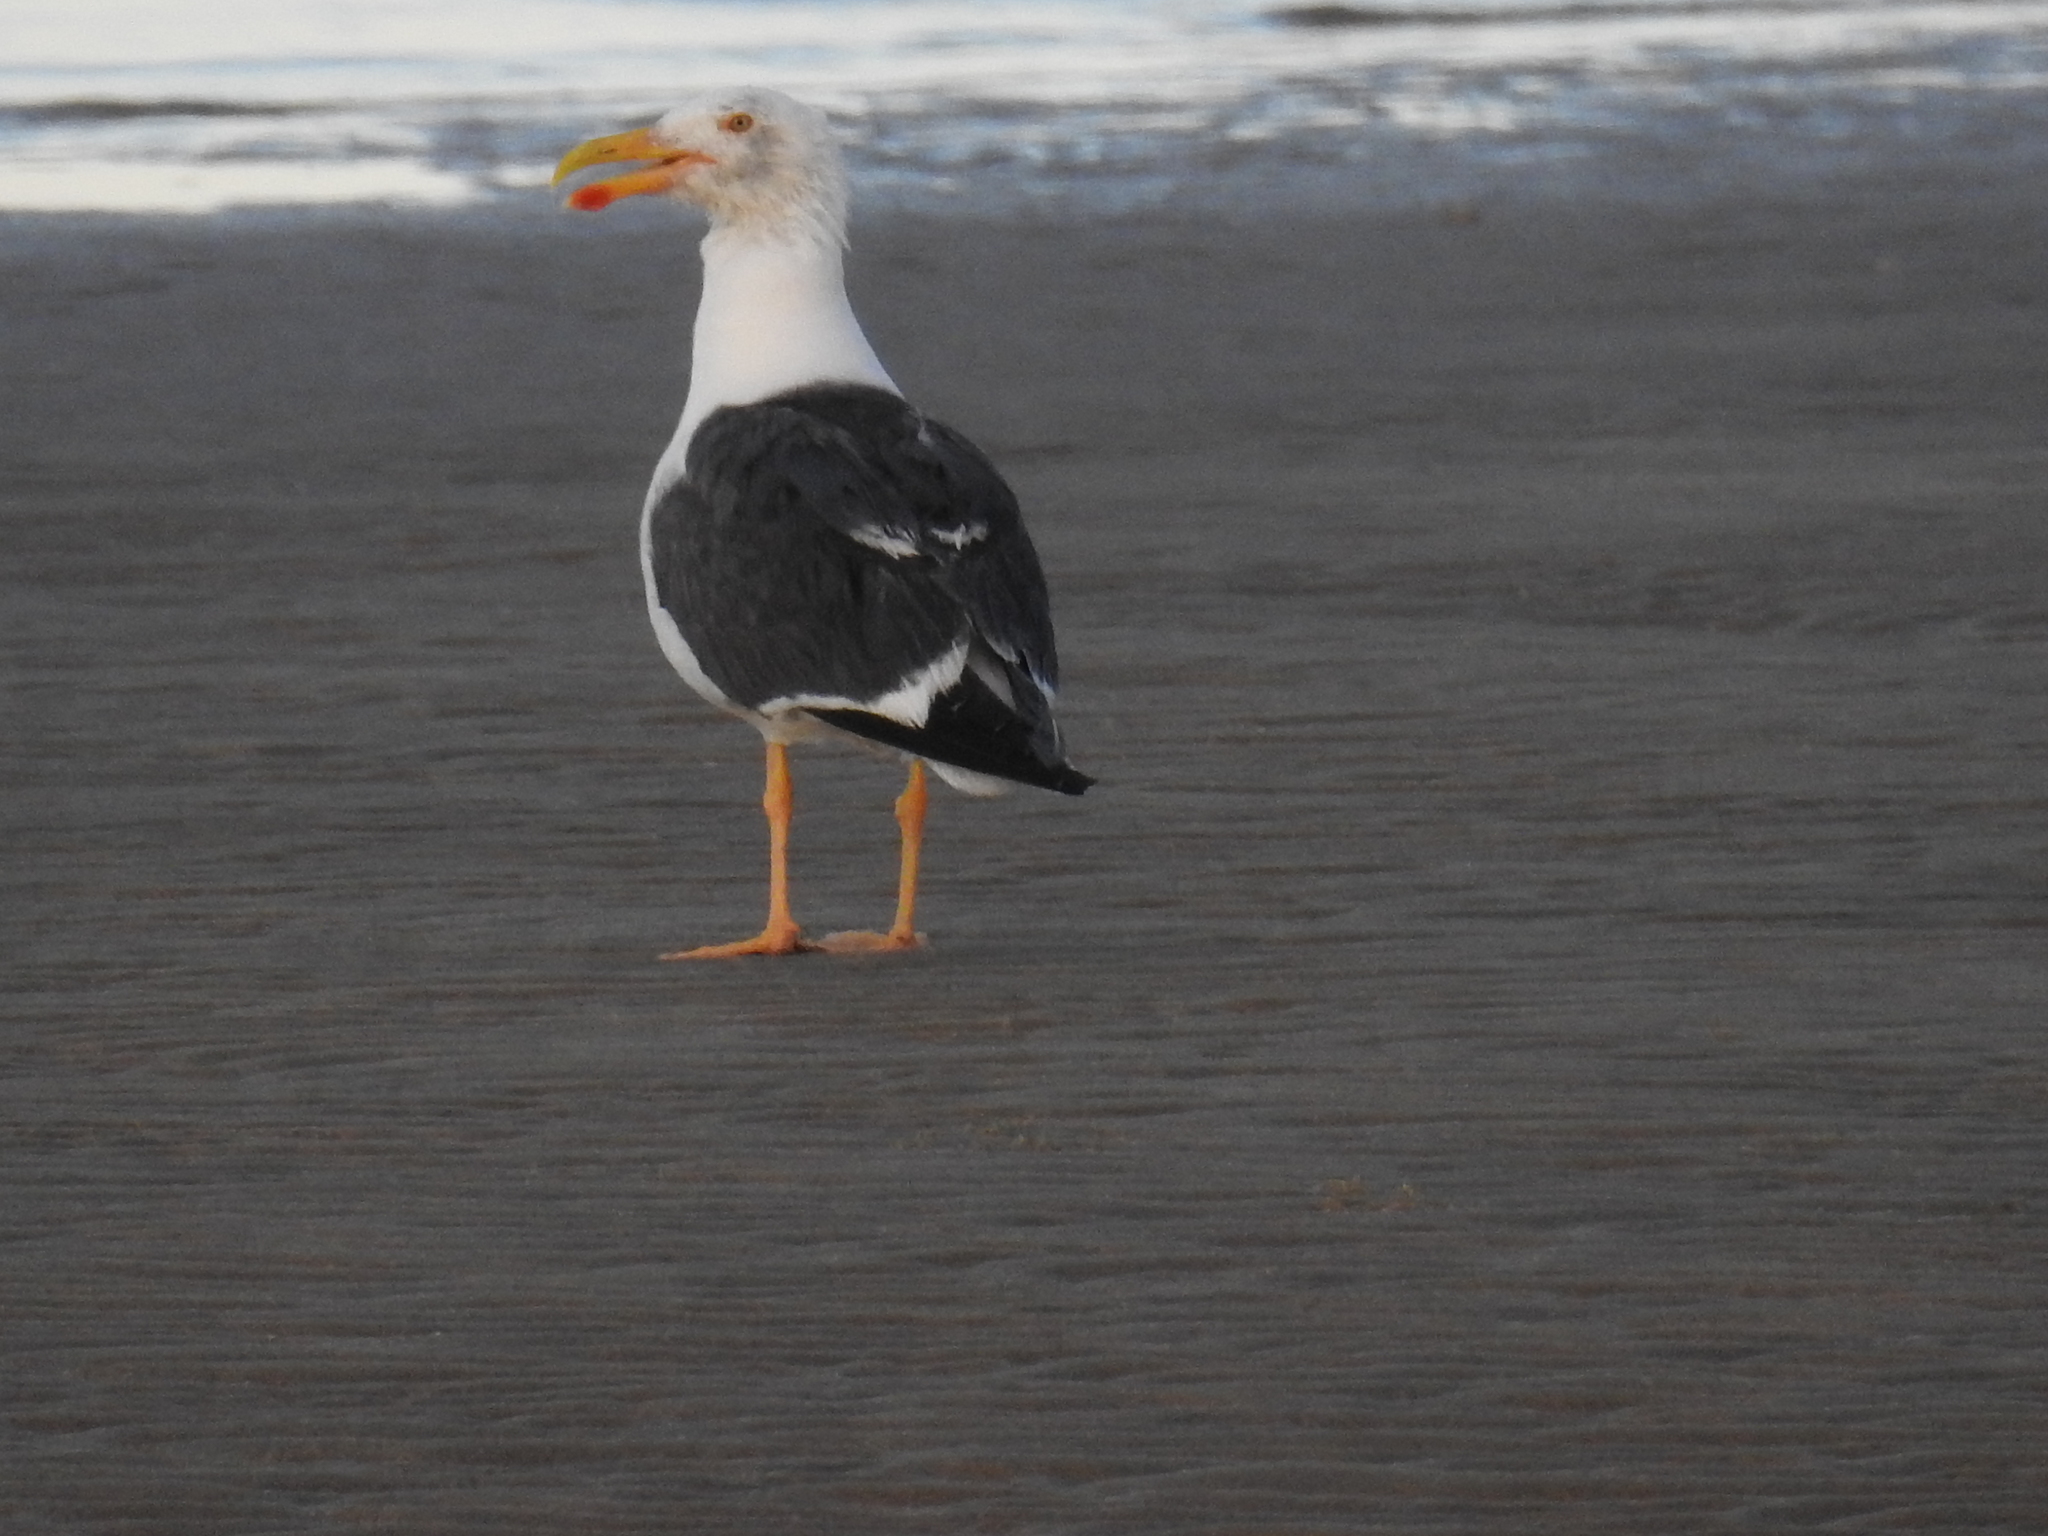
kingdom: Animalia
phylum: Chordata
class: Aves
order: Charadriiformes
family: Laridae
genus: Larus
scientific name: Larus livens
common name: Yellow-footed gull
